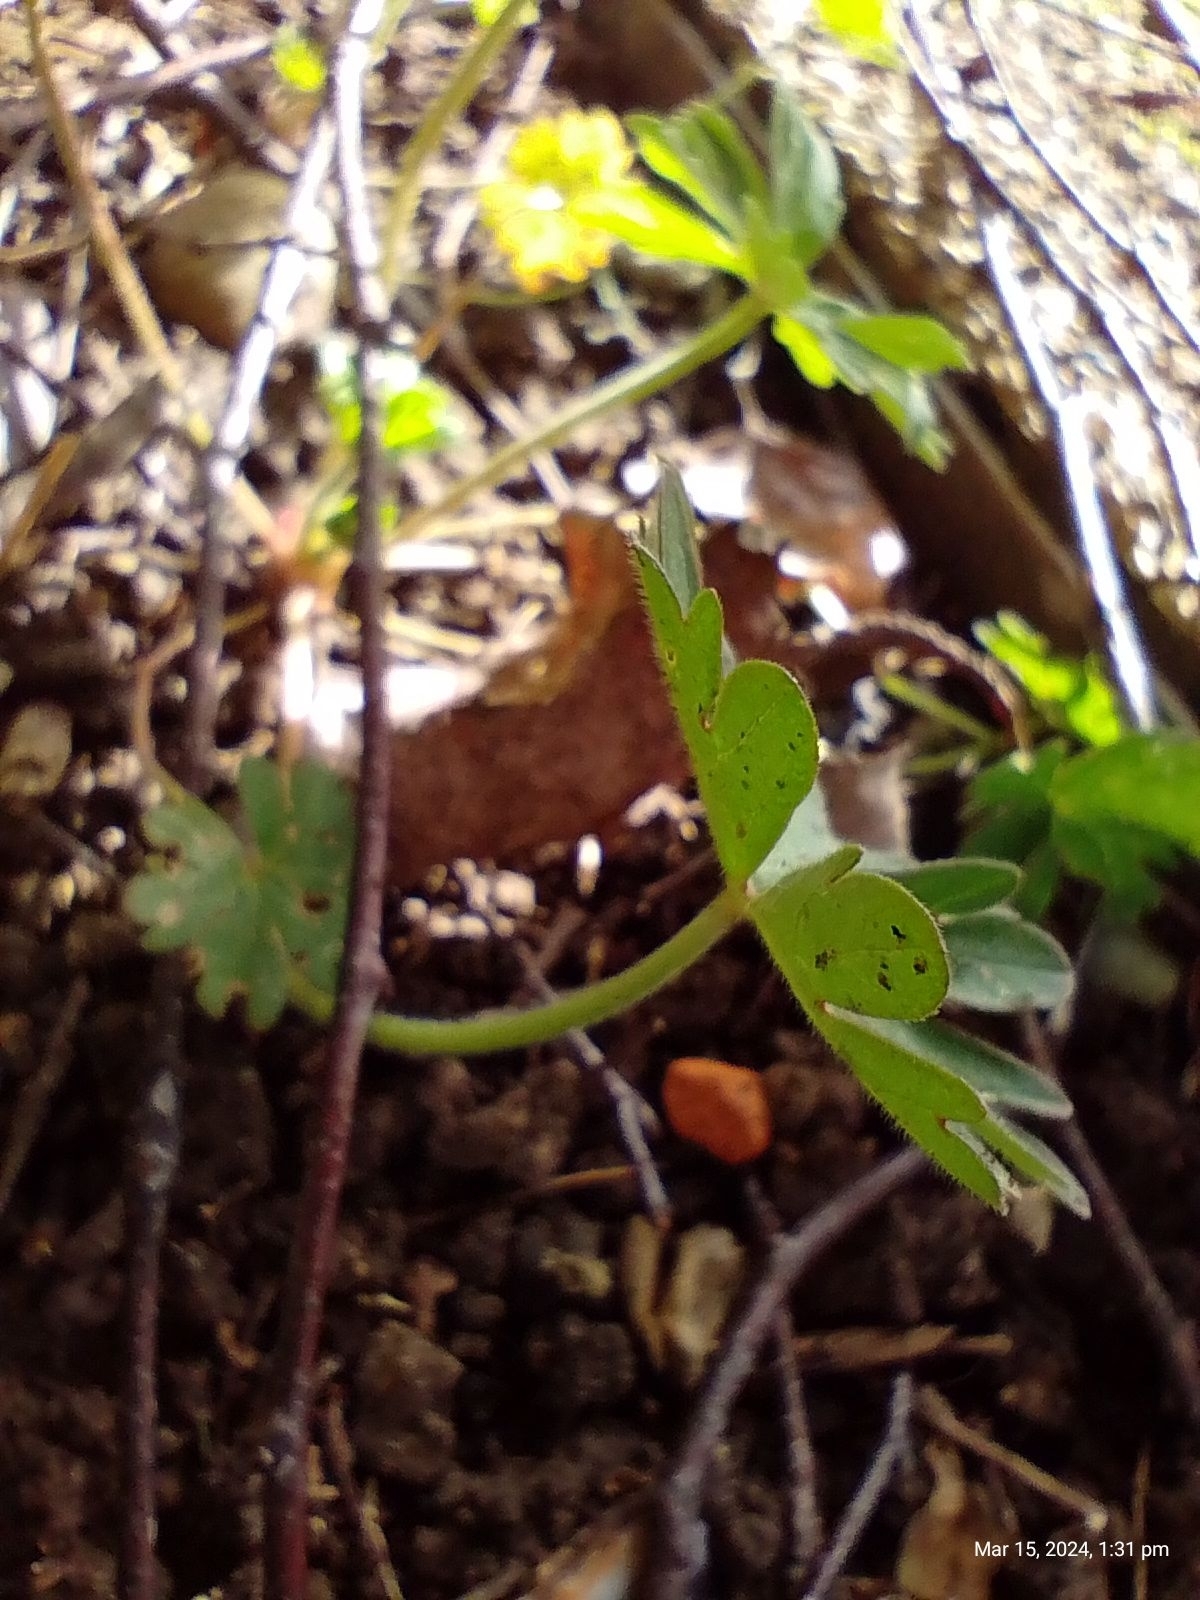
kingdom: Plantae
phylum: Tracheophyta
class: Magnoliopsida
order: Geraniales
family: Geraniaceae
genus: Geranium
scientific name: Geranium molle
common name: Dove's-foot crane's-bill
